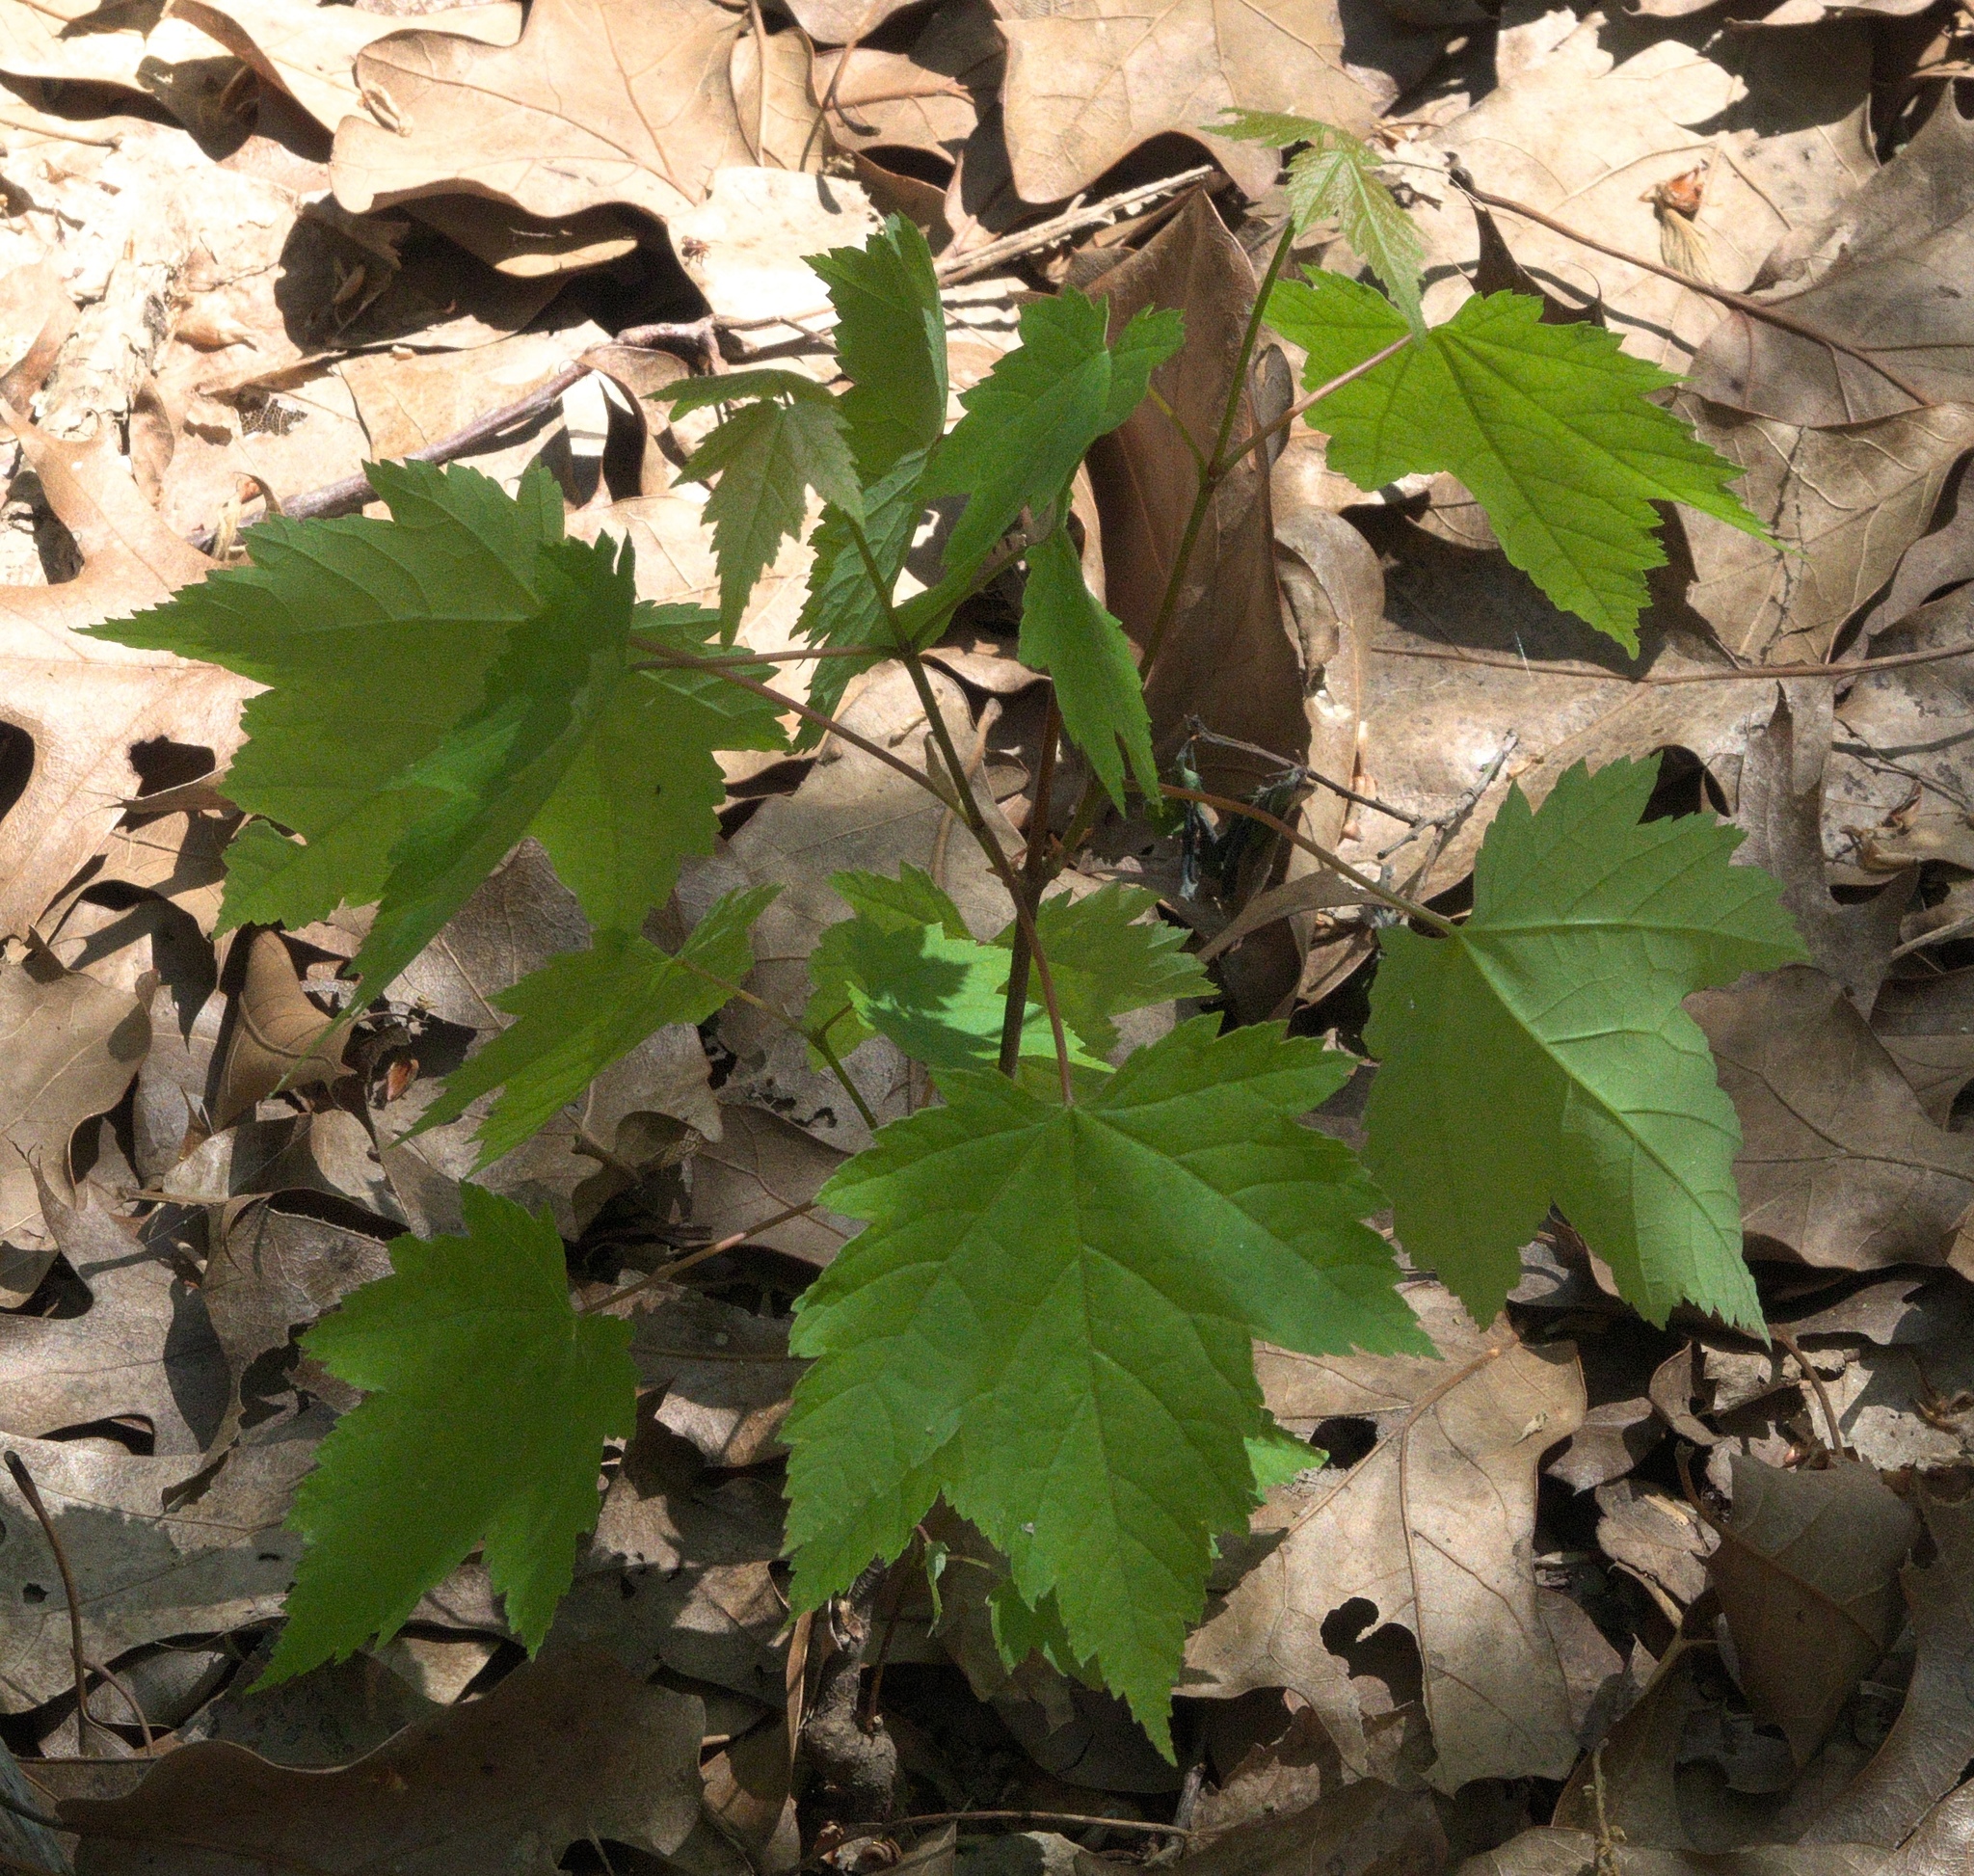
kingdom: Plantae
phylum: Tracheophyta
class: Magnoliopsida
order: Sapindales
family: Sapindaceae
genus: Acer
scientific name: Acer rubrum
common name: Red maple
